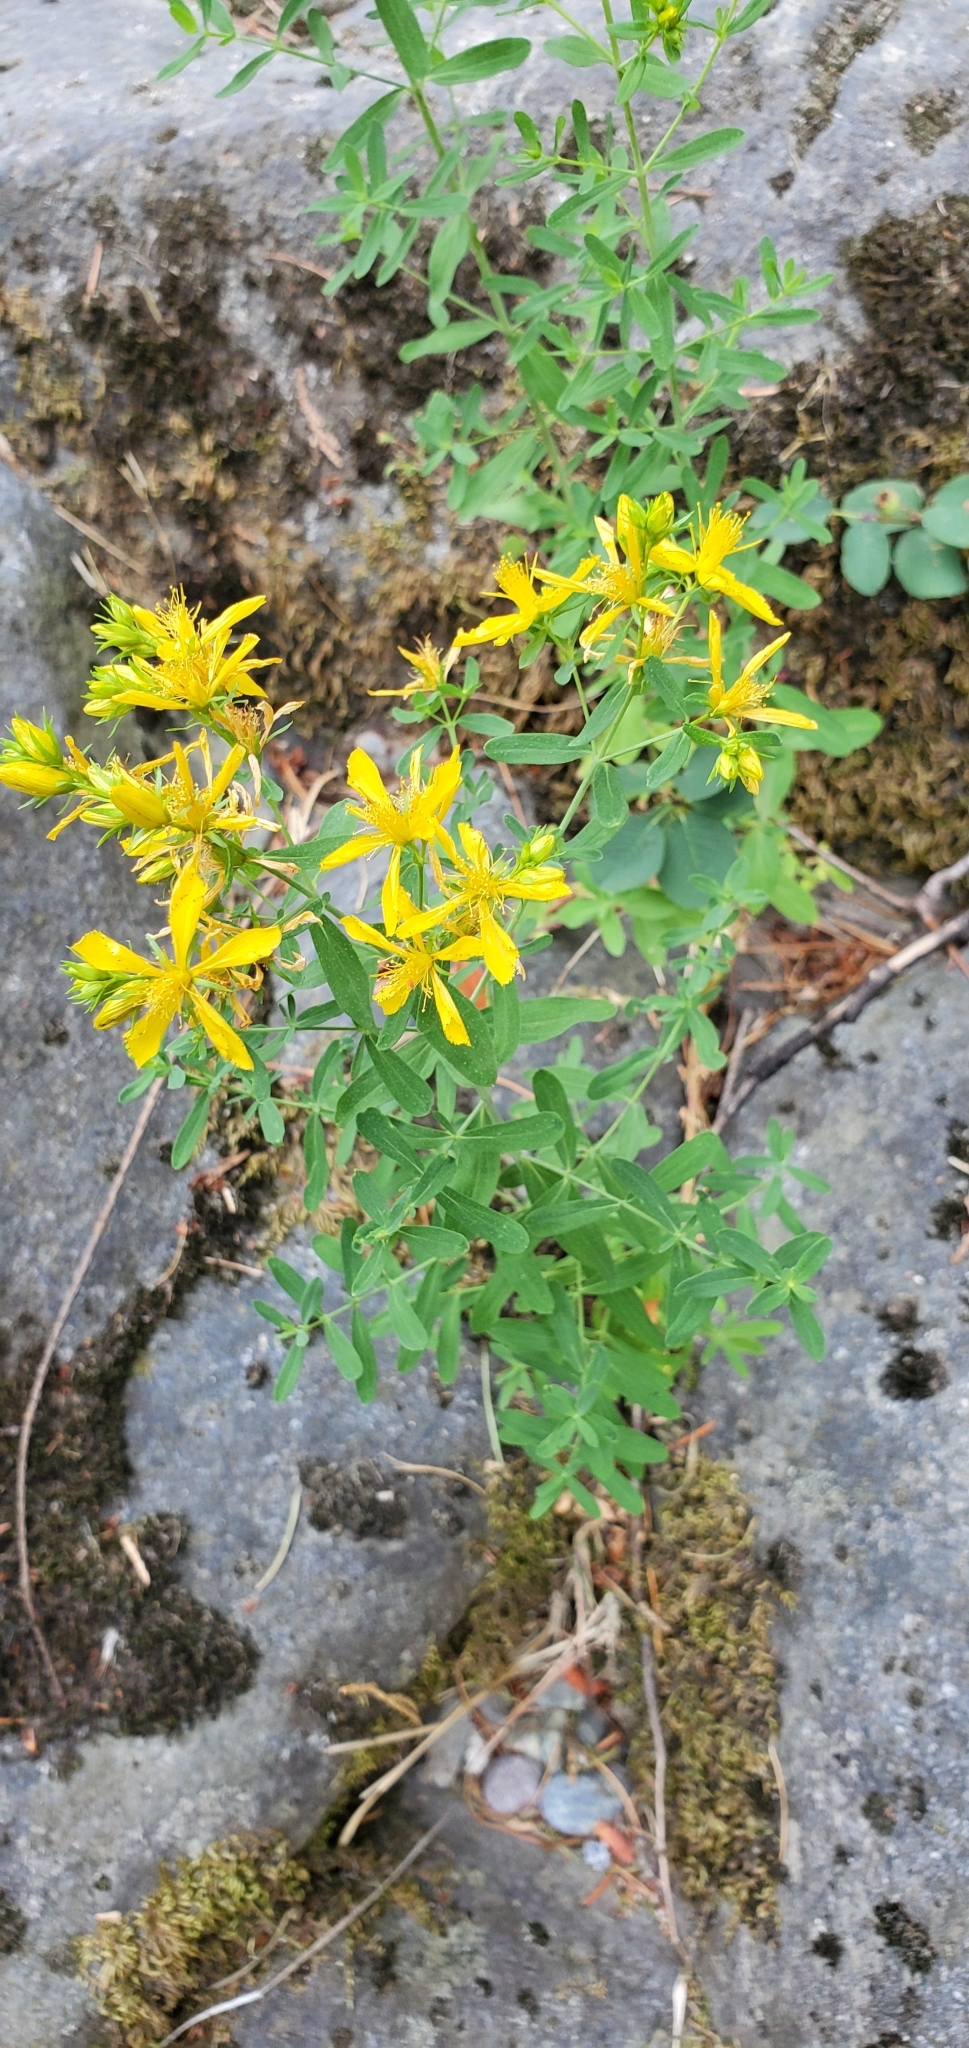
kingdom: Plantae
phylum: Tracheophyta
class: Magnoliopsida
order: Malpighiales
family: Hypericaceae
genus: Hypericum
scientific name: Hypericum perforatum
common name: Common st. johnswort
